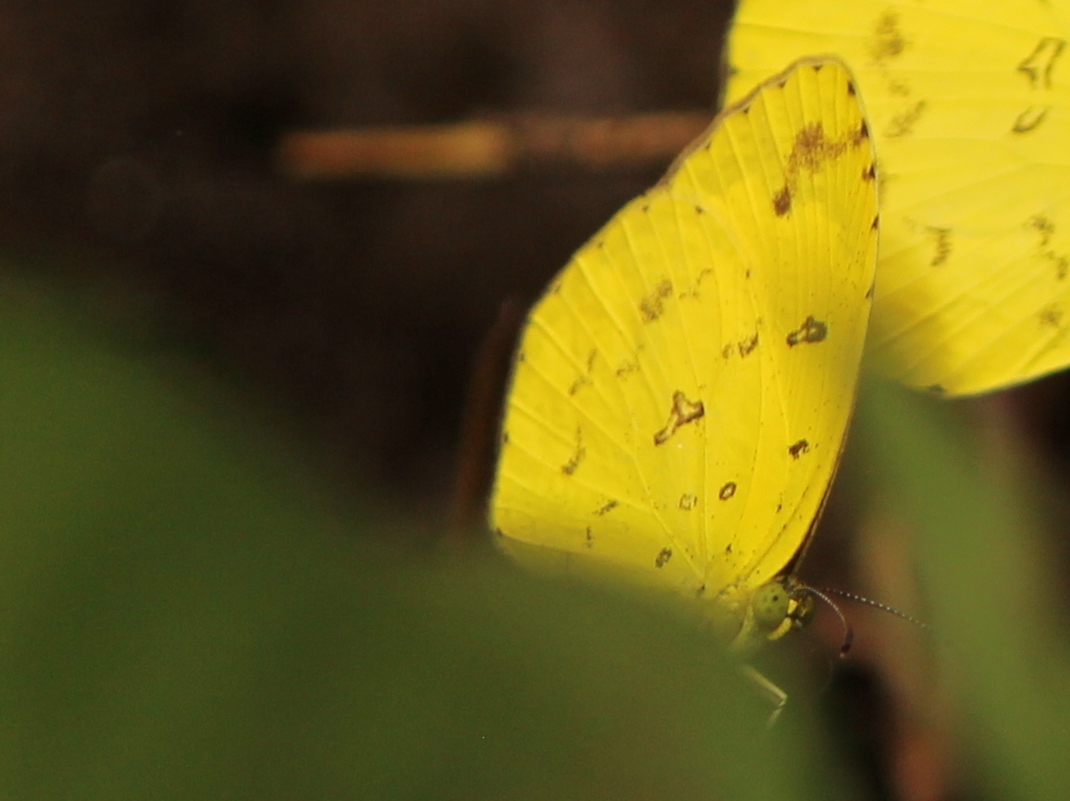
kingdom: Animalia
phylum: Arthropoda
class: Insecta
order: Lepidoptera
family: Pieridae
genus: Eurema
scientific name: Eurema hecabe
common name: Pale grass yellow
